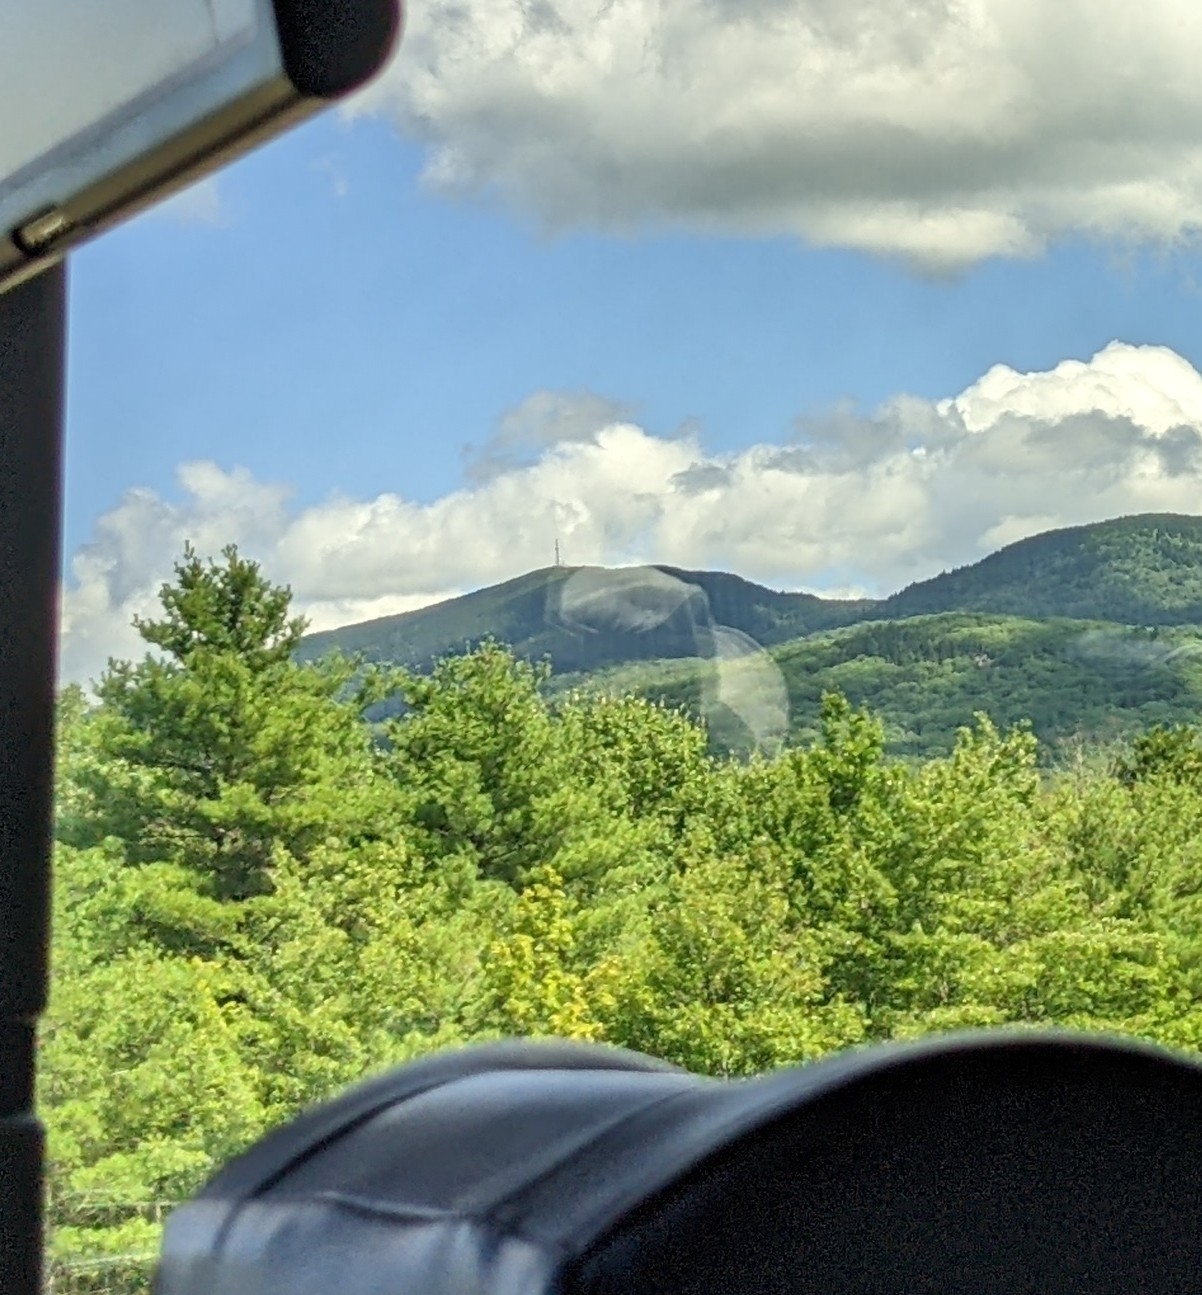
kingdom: Plantae
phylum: Tracheophyta
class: Pinopsida
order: Pinales
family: Pinaceae
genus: Pinus
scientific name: Pinus strobus
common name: Weymouth pine
